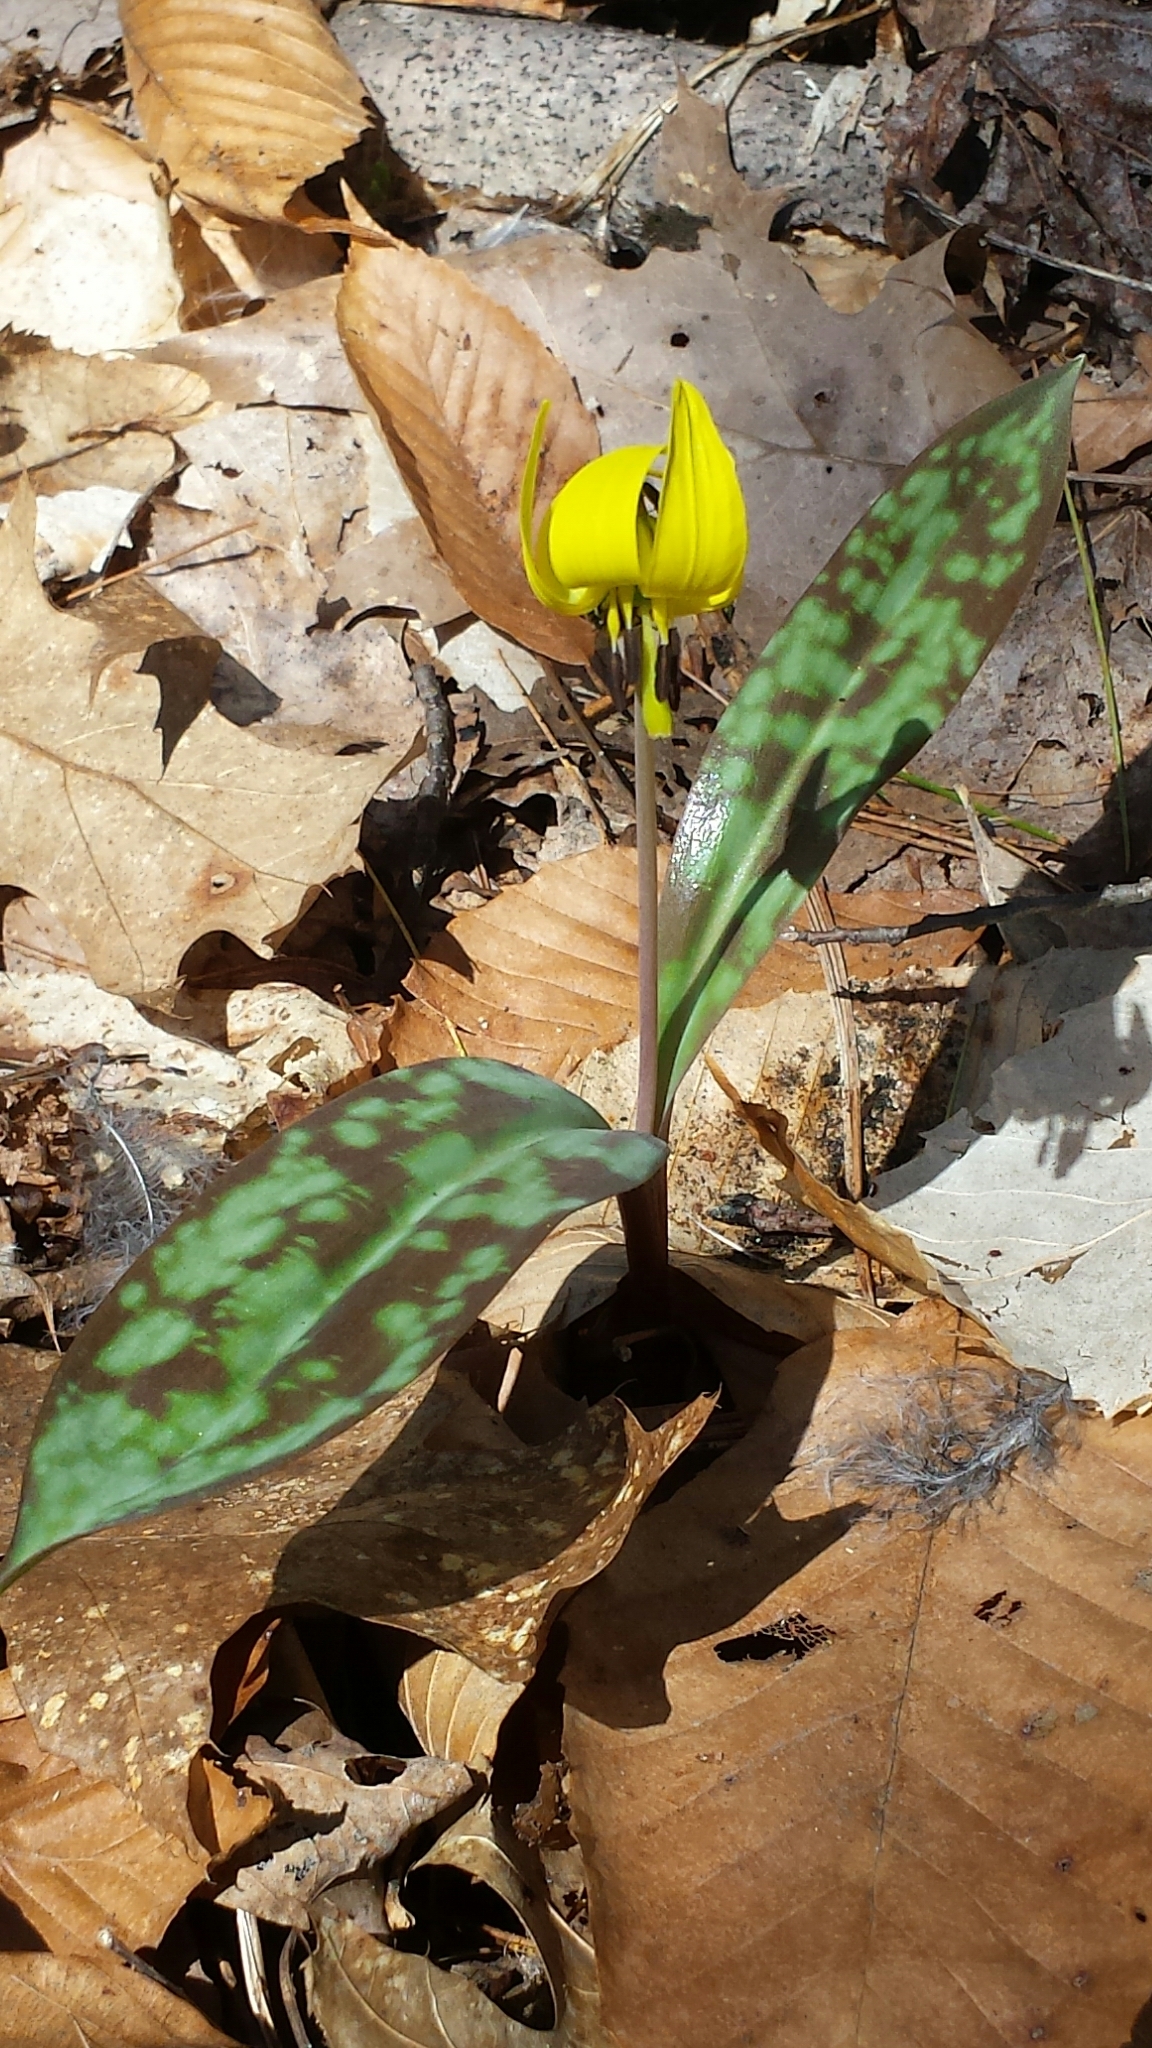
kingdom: Plantae
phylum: Tracheophyta
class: Liliopsida
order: Liliales
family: Liliaceae
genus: Erythronium
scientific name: Erythronium americanum
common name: Yellow adder's-tongue
